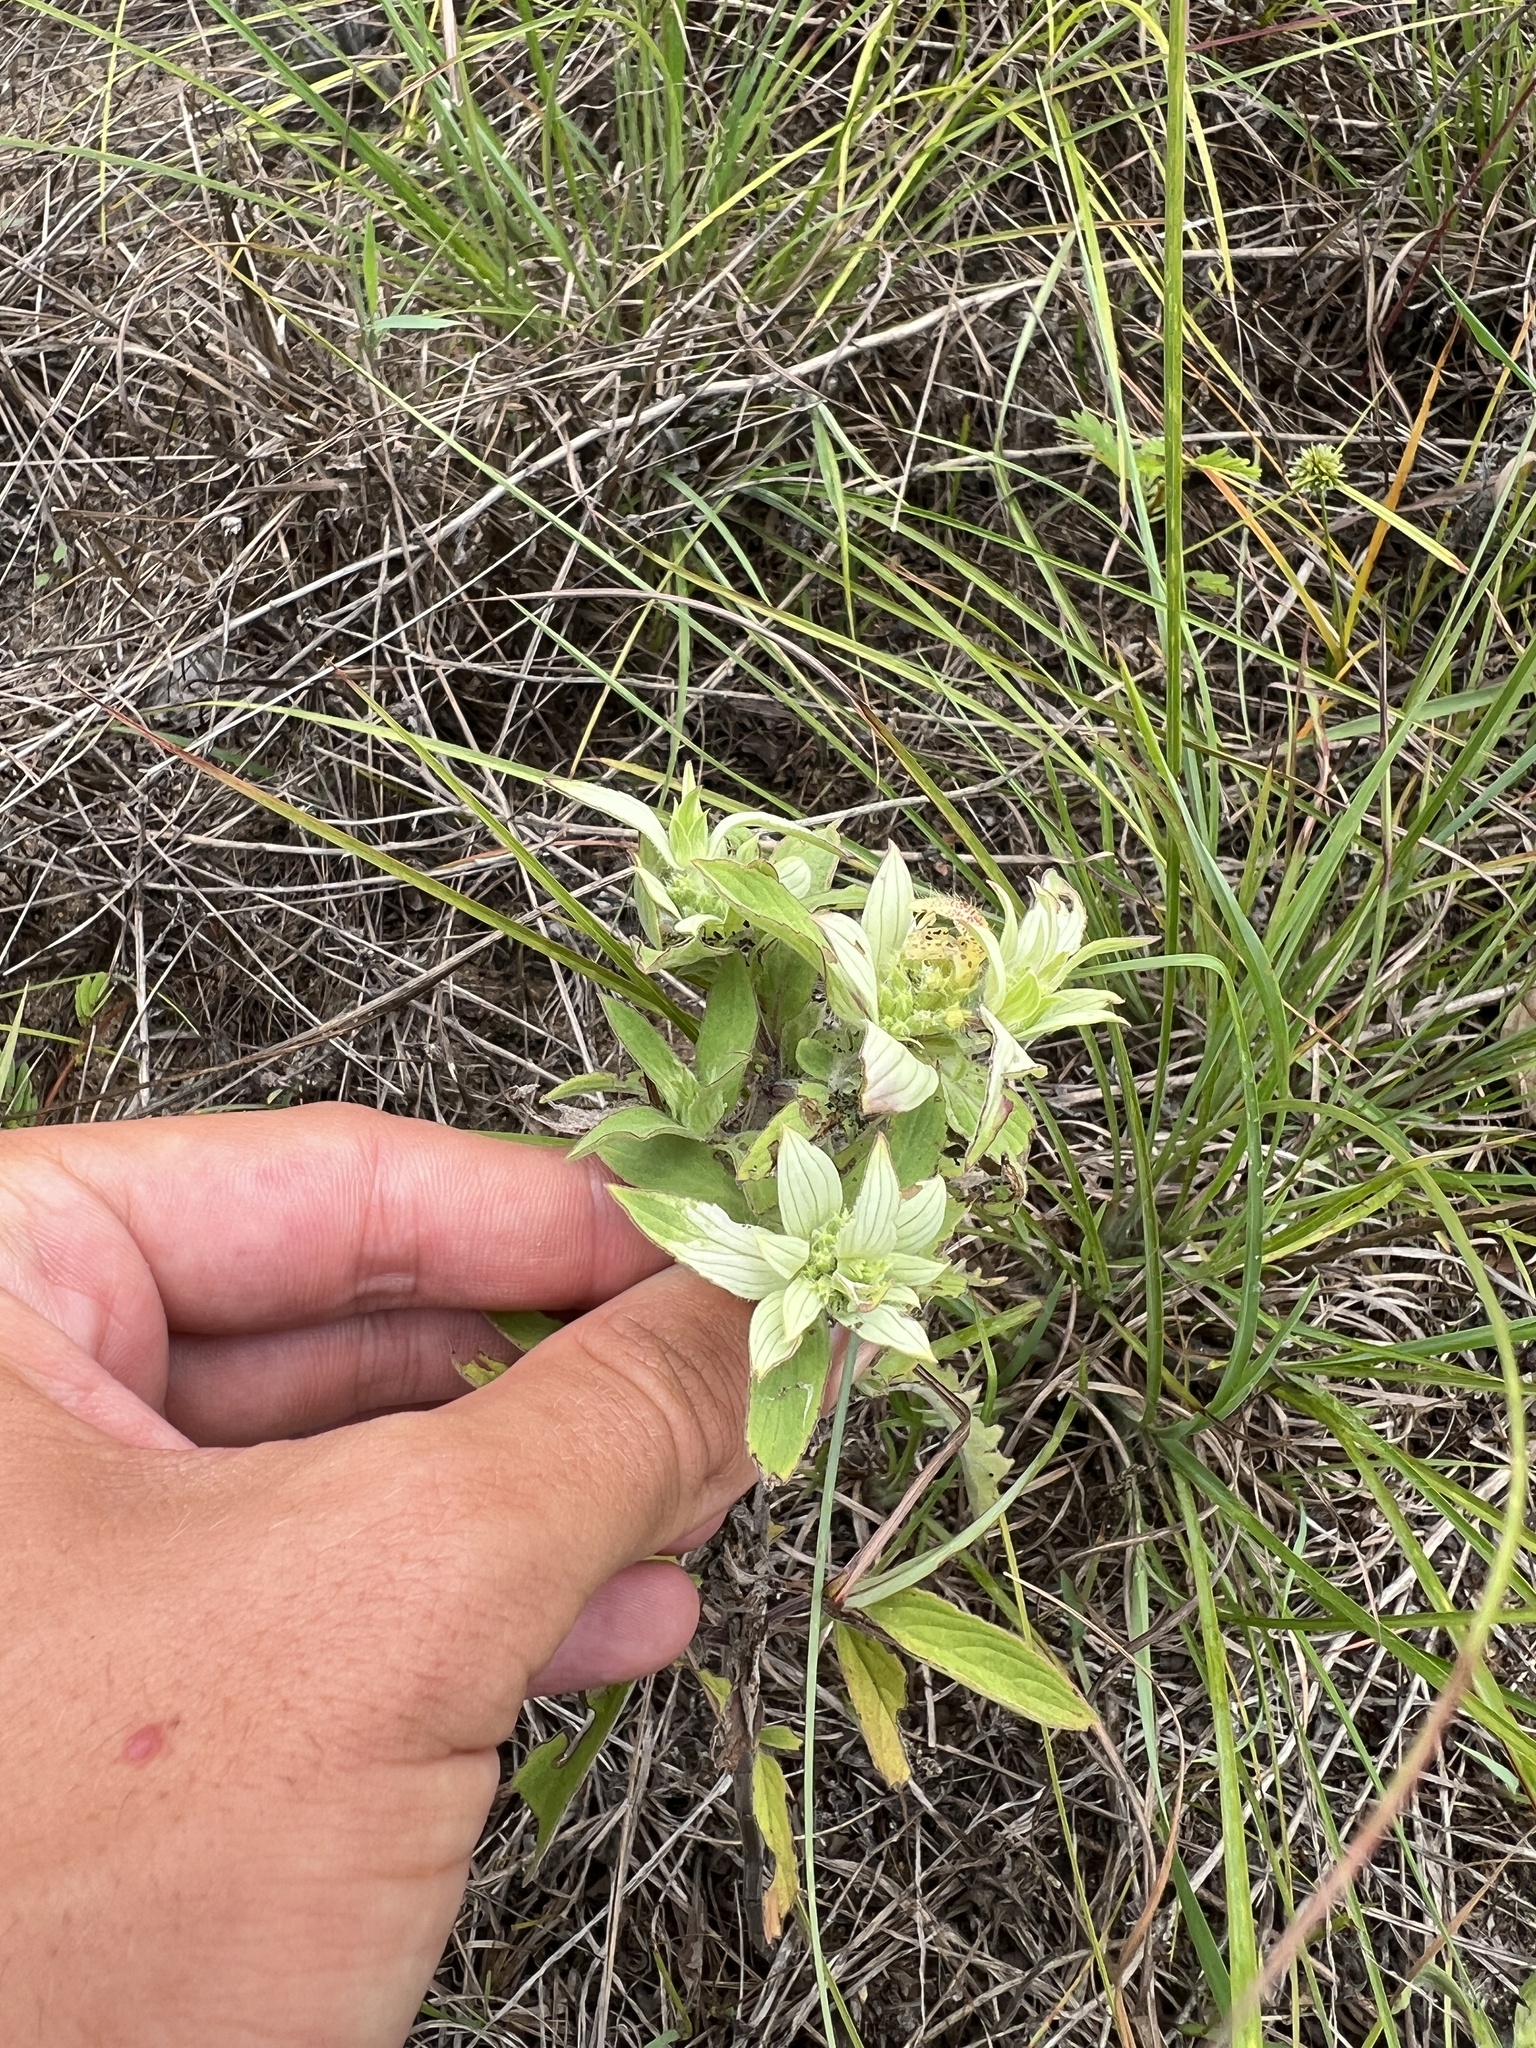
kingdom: Plantae
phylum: Tracheophyta
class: Magnoliopsida
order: Lamiales
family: Lamiaceae
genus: Monarda
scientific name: Monarda punctata
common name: Dotted monarda
